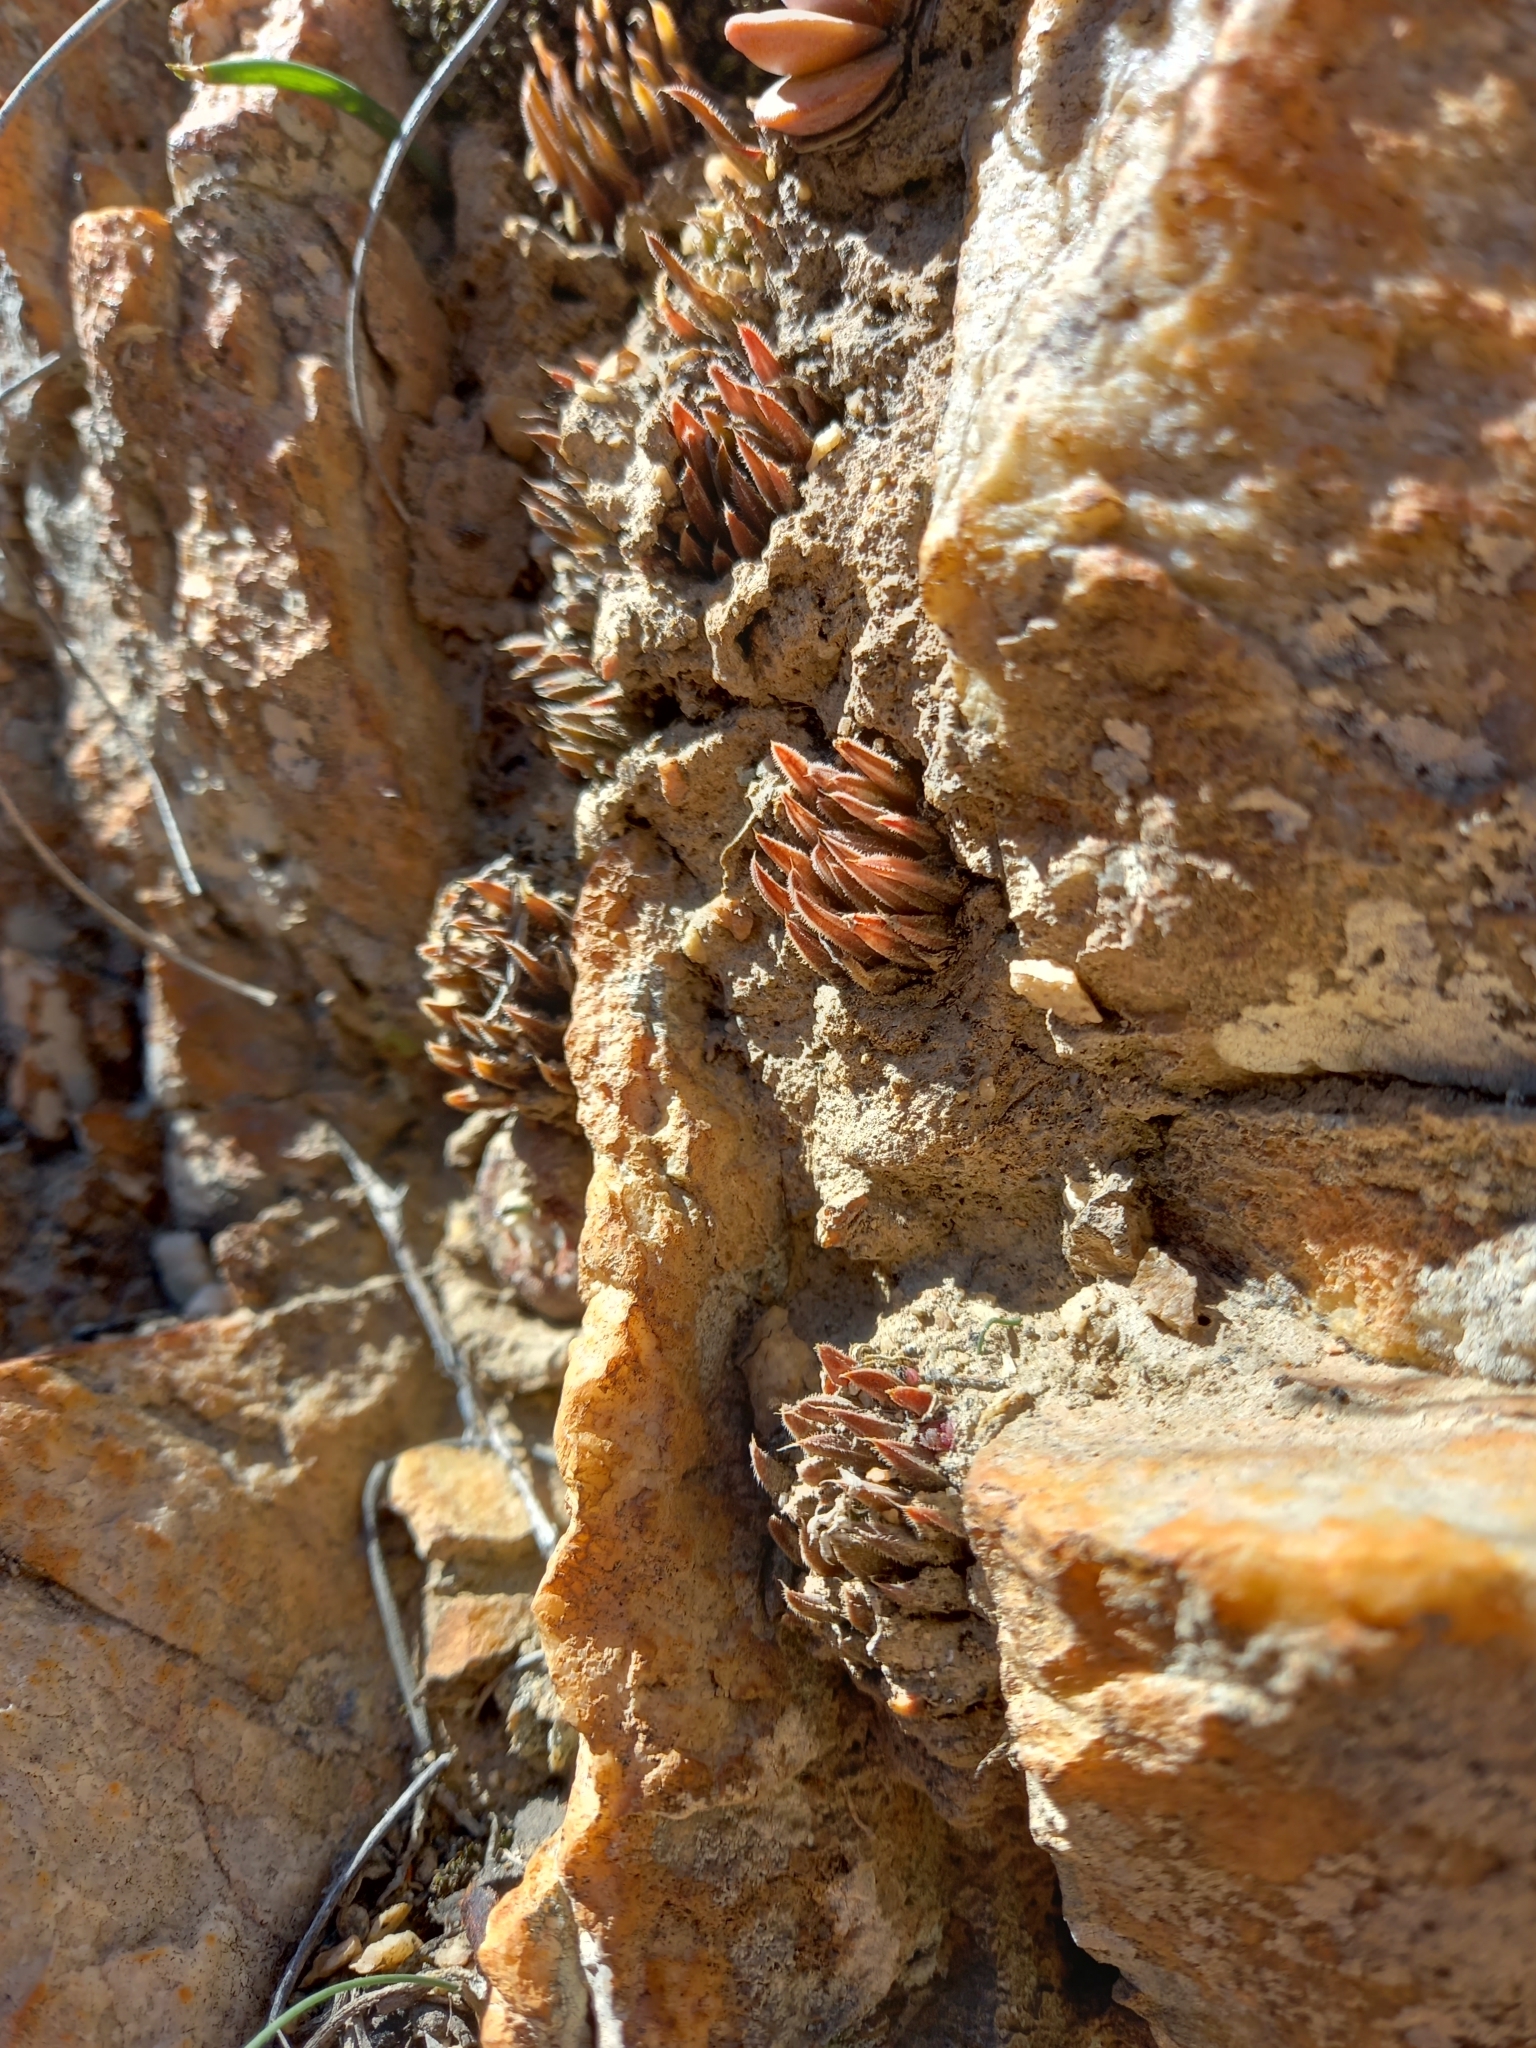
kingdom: Plantae
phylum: Tracheophyta
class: Liliopsida
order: Asparagales
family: Asphodelaceae
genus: Haworthia
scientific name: Haworthia monticola
